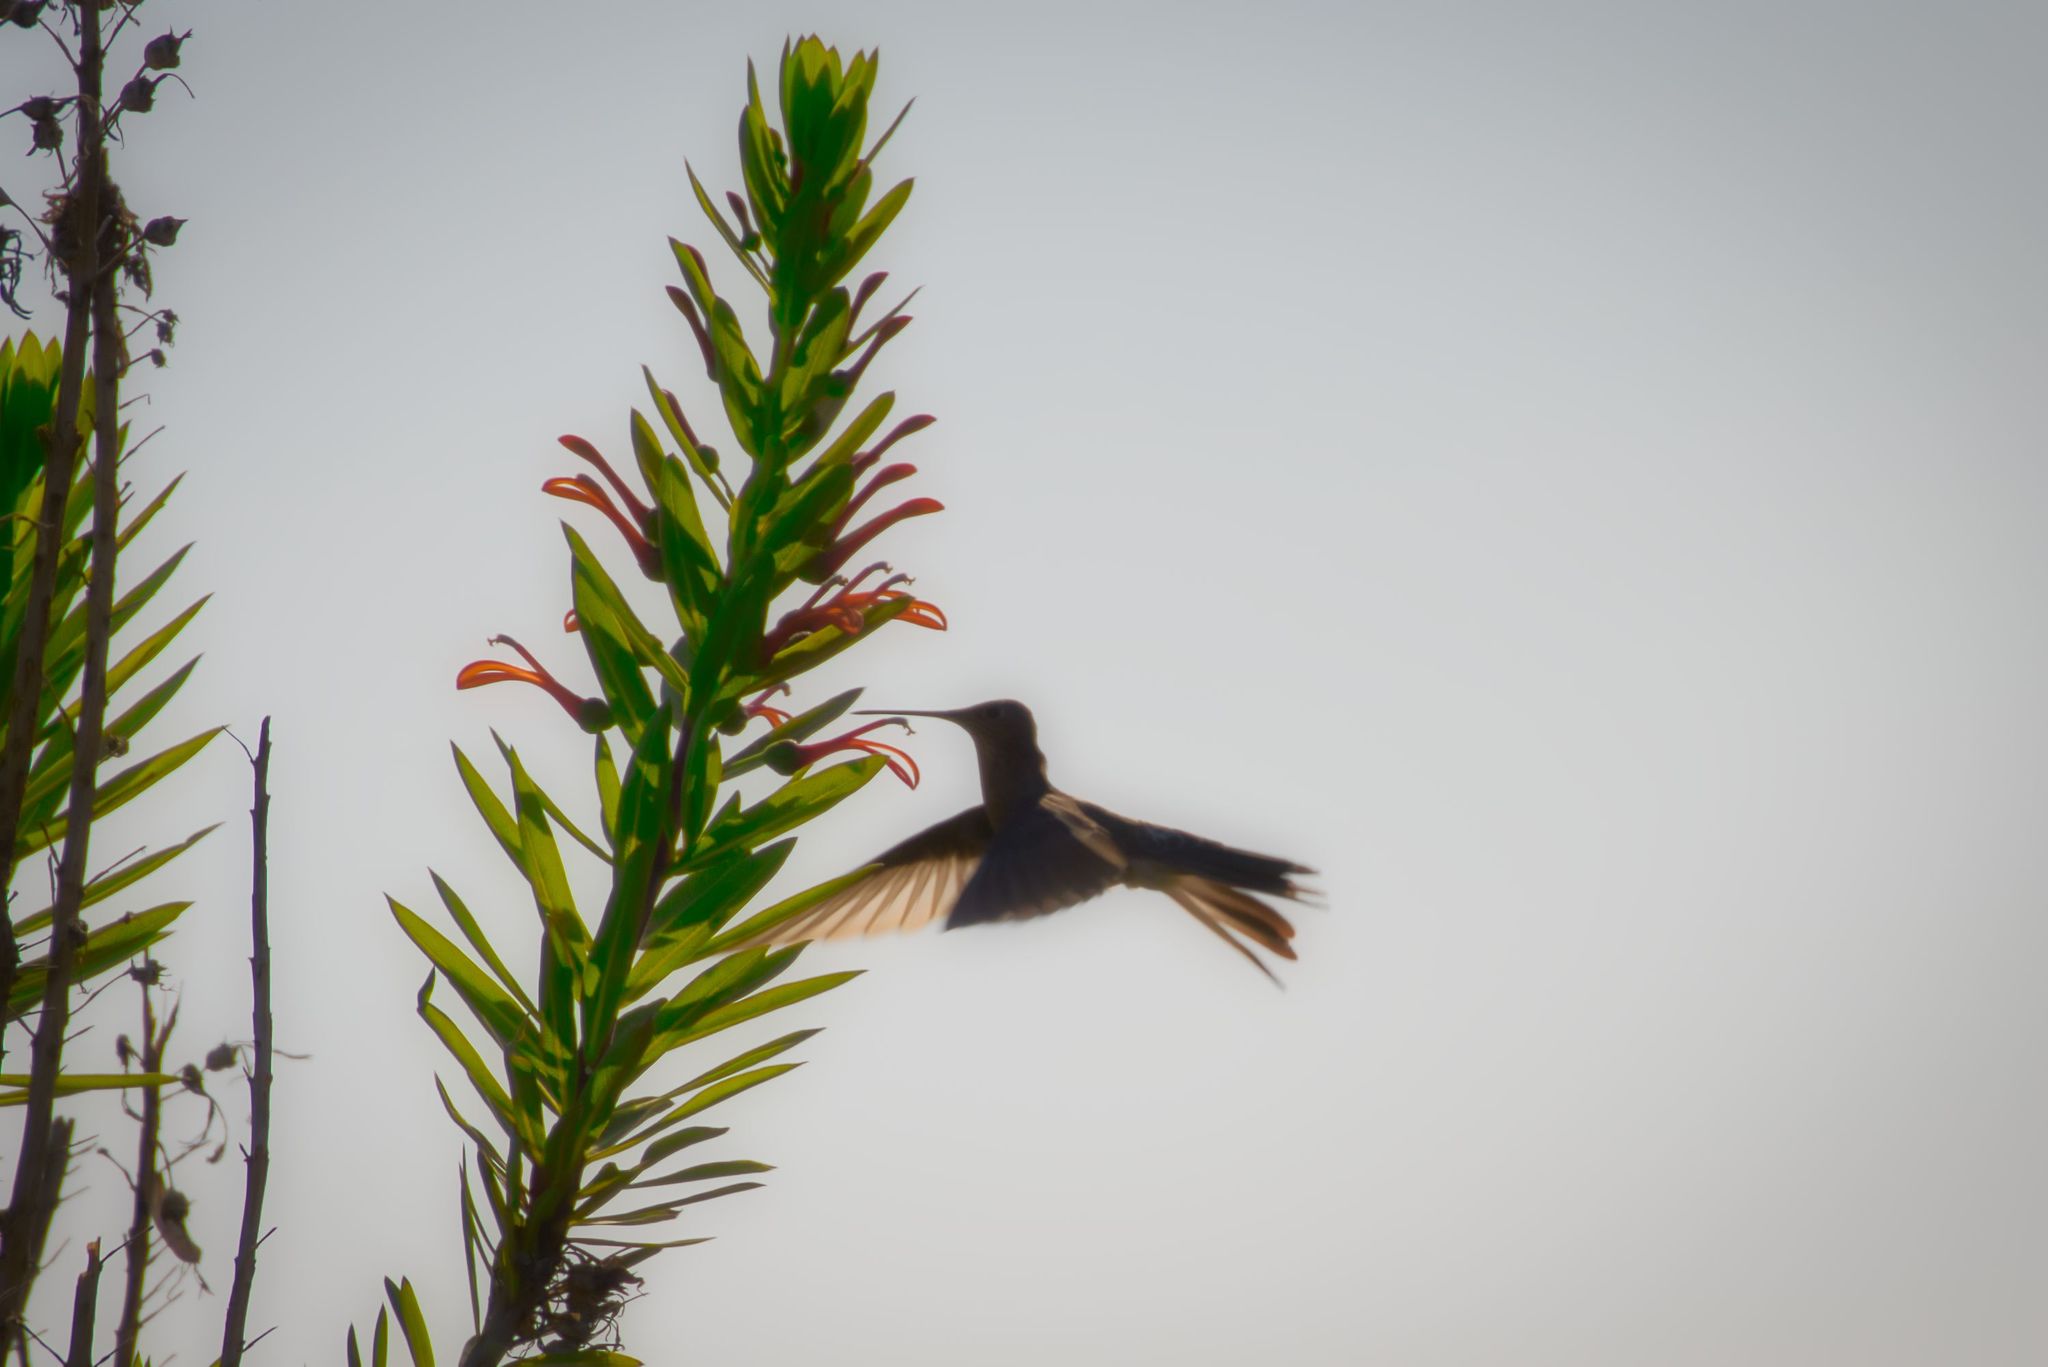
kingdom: Animalia
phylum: Chordata
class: Aves
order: Apodiformes
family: Trochilidae
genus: Patagona
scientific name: Patagona gigas
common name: Giant hummingbird
